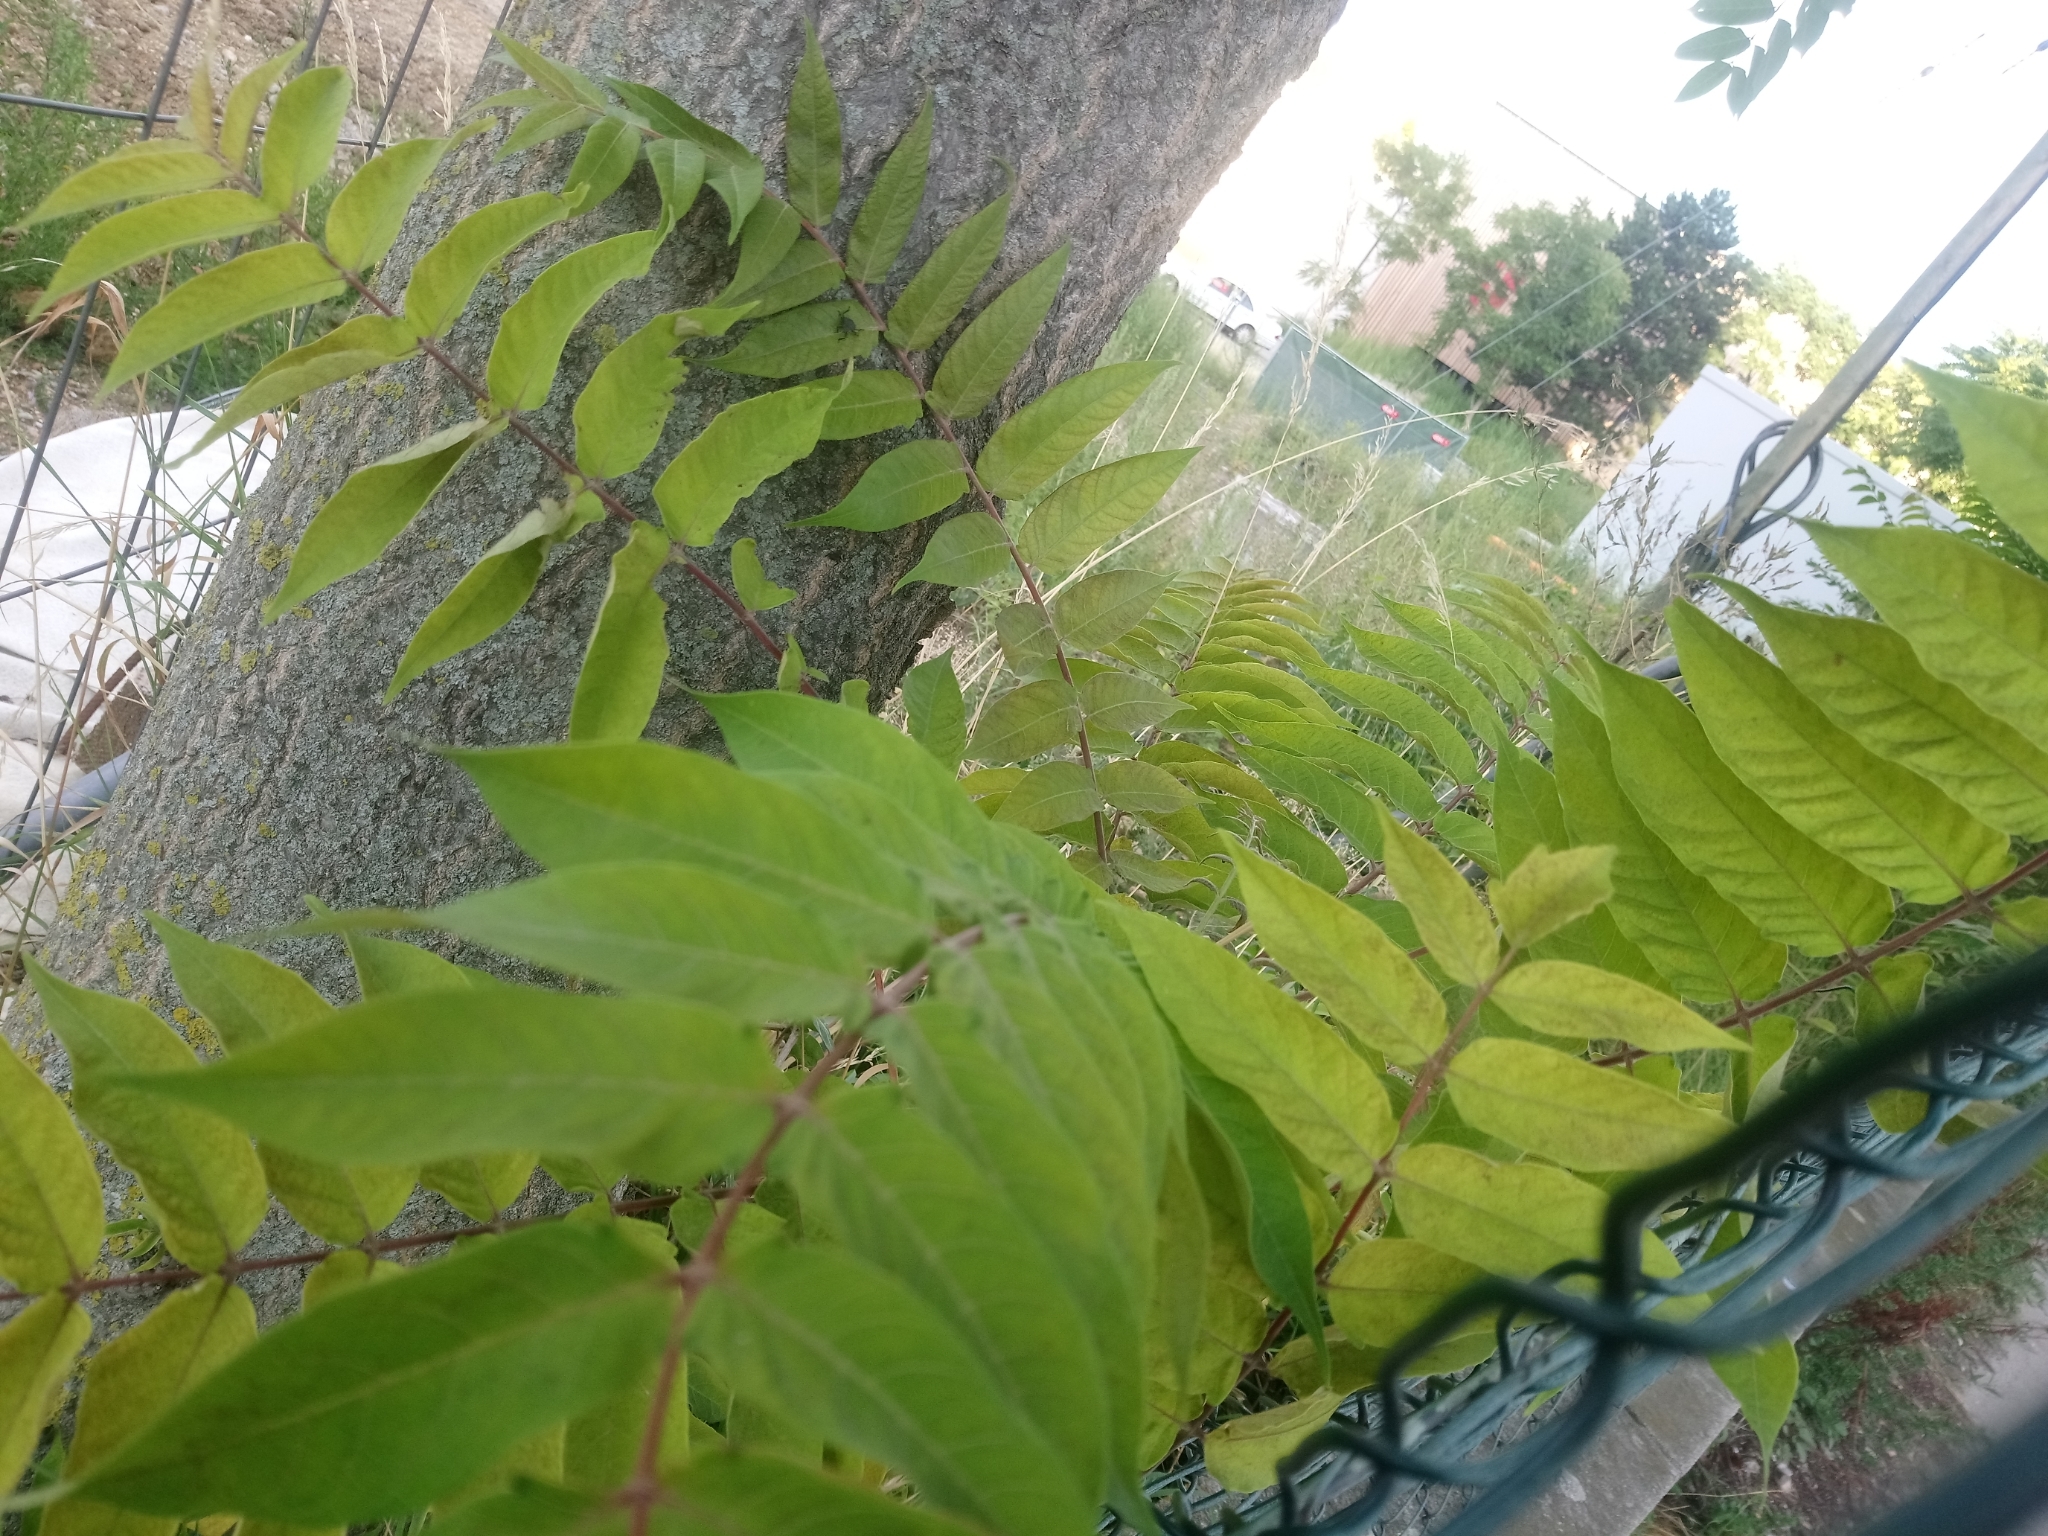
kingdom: Plantae
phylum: Tracheophyta
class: Magnoliopsida
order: Sapindales
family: Simaroubaceae
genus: Ailanthus
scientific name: Ailanthus altissima
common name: Tree-of-heaven
